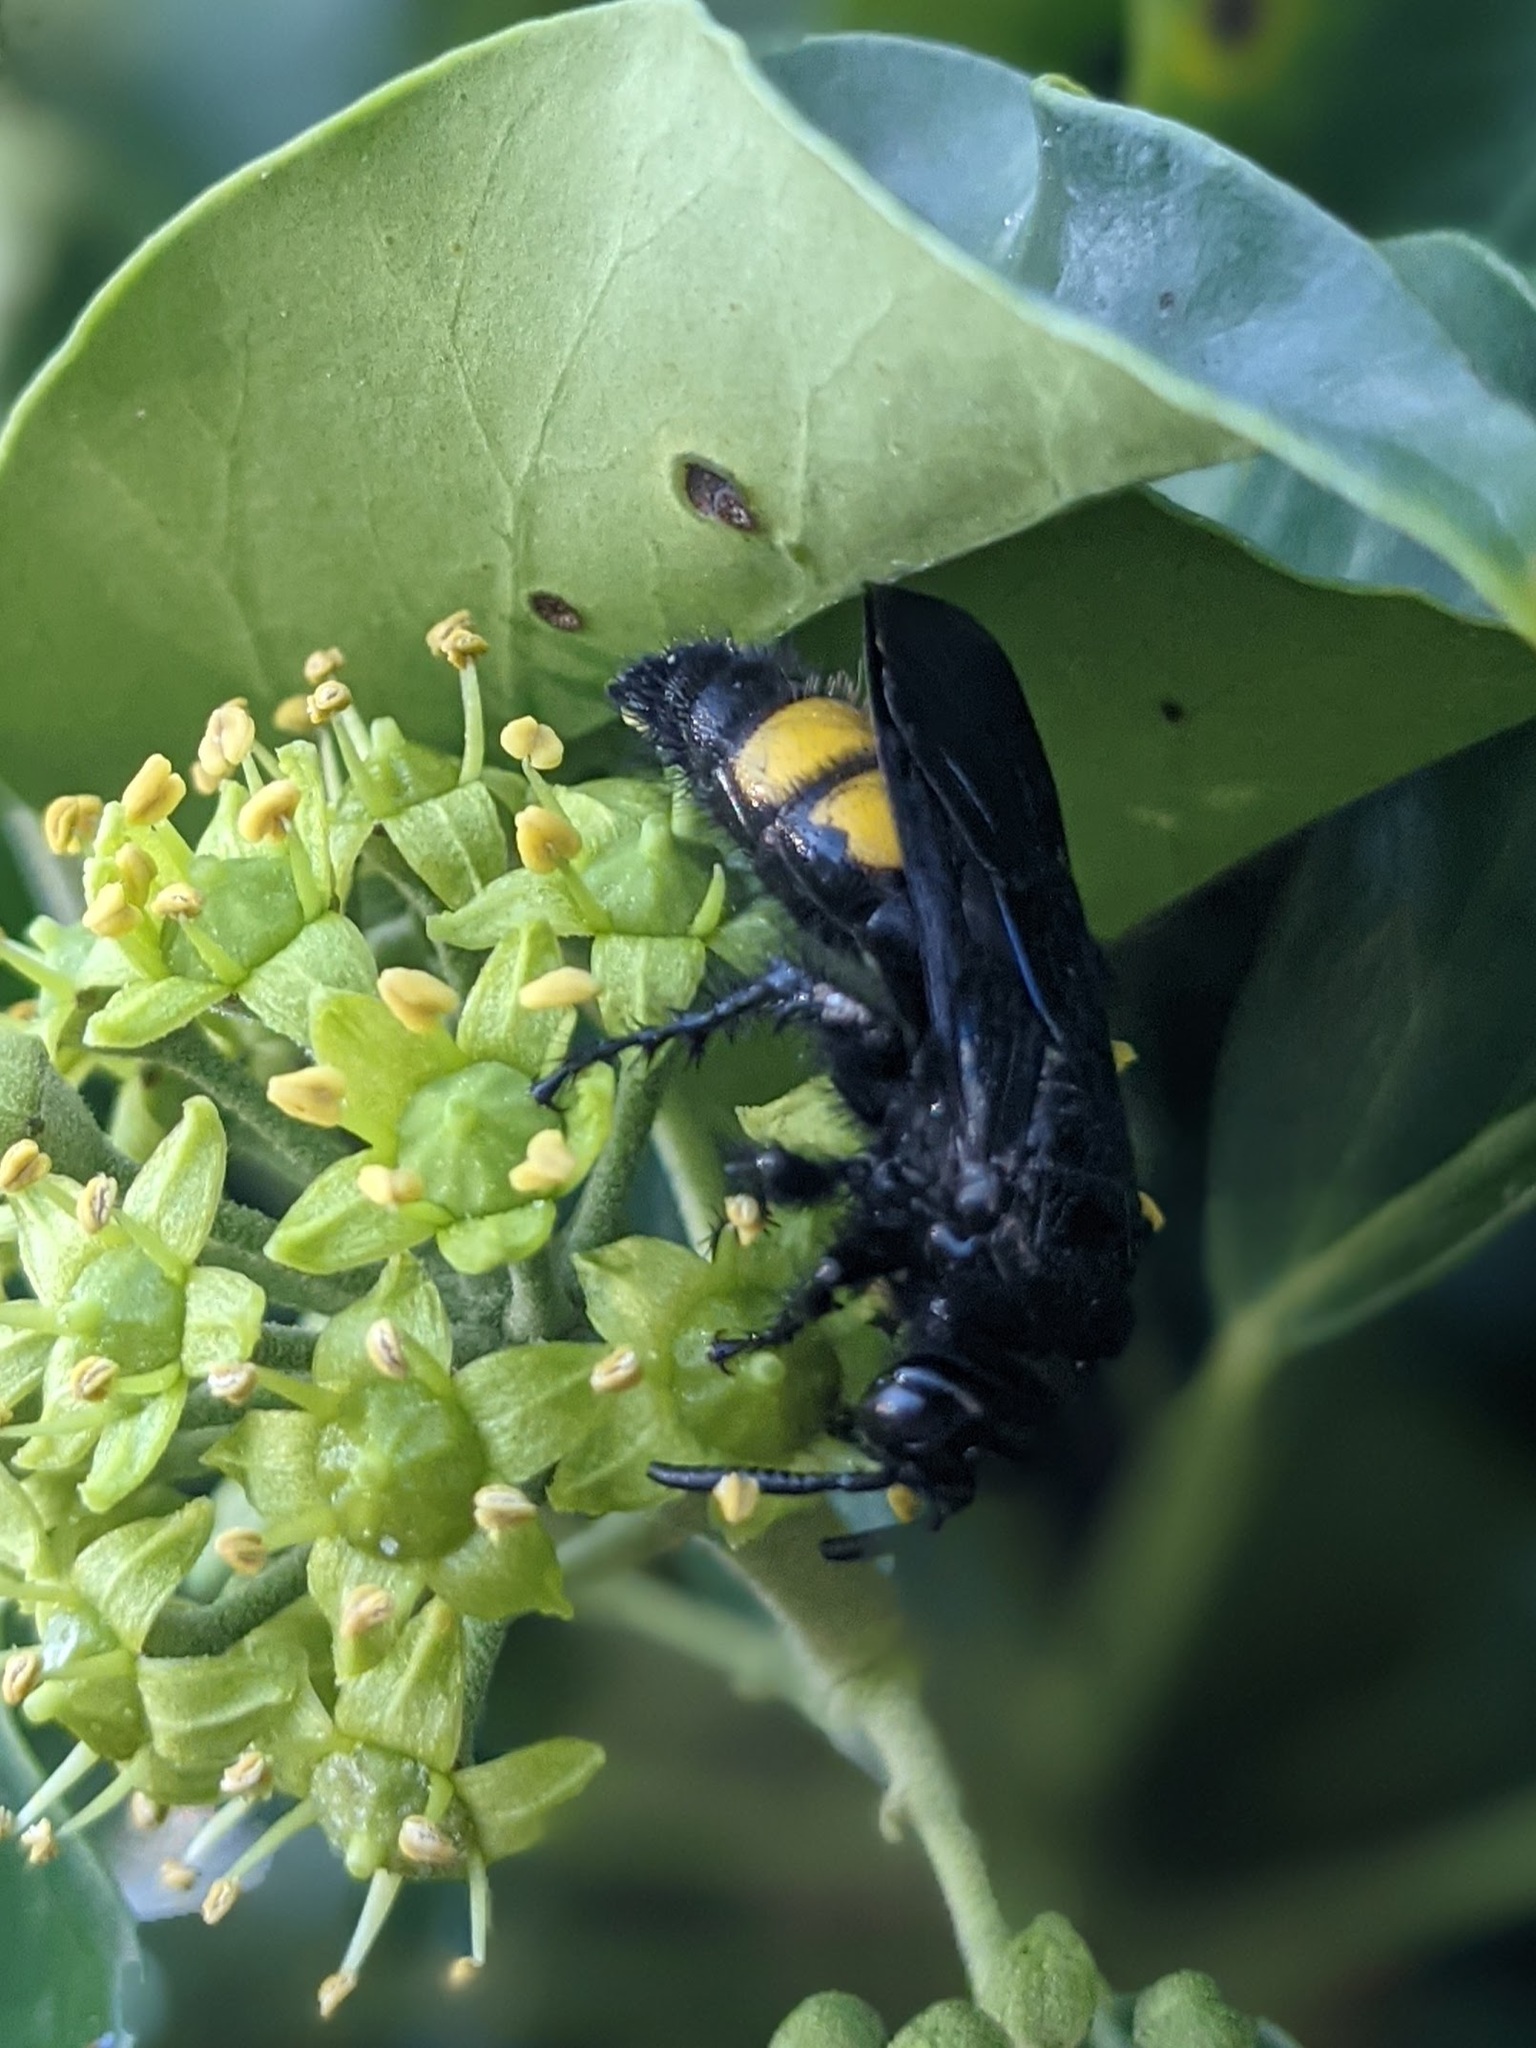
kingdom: Animalia
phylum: Arthropoda
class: Insecta
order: Hymenoptera
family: Scoliidae
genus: Scolia
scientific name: Scolia hirta
